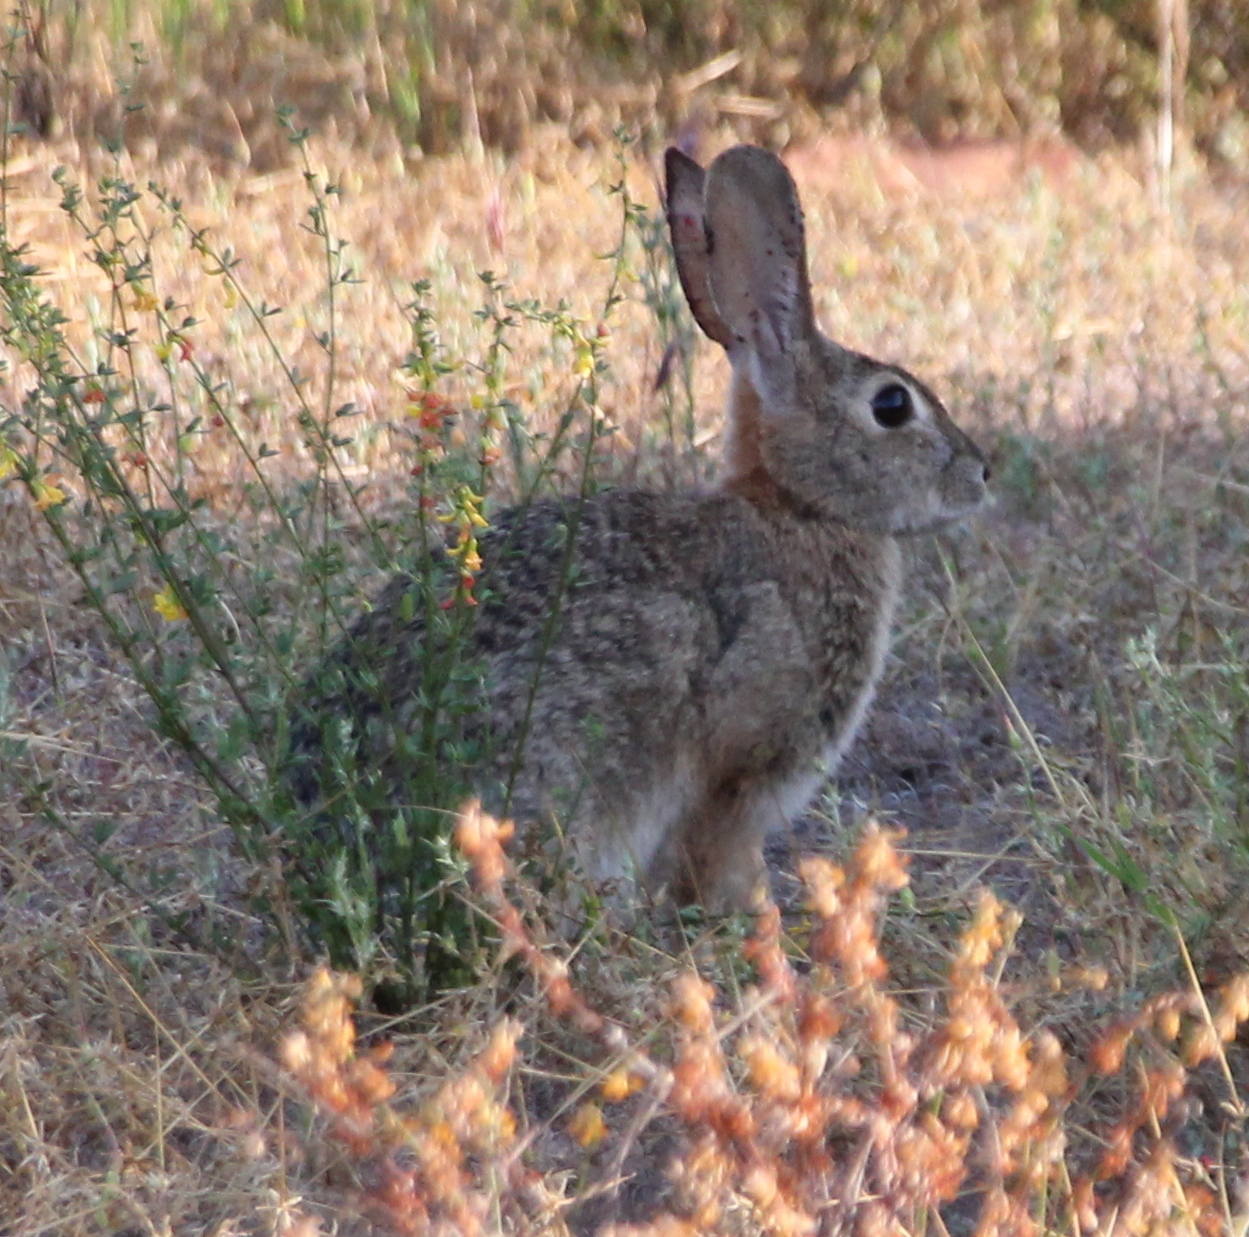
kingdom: Animalia
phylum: Chordata
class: Mammalia
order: Lagomorpha
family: Leporidae
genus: Sylvilagus
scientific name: Sylvilagus audubonii
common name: Desert cottontail
